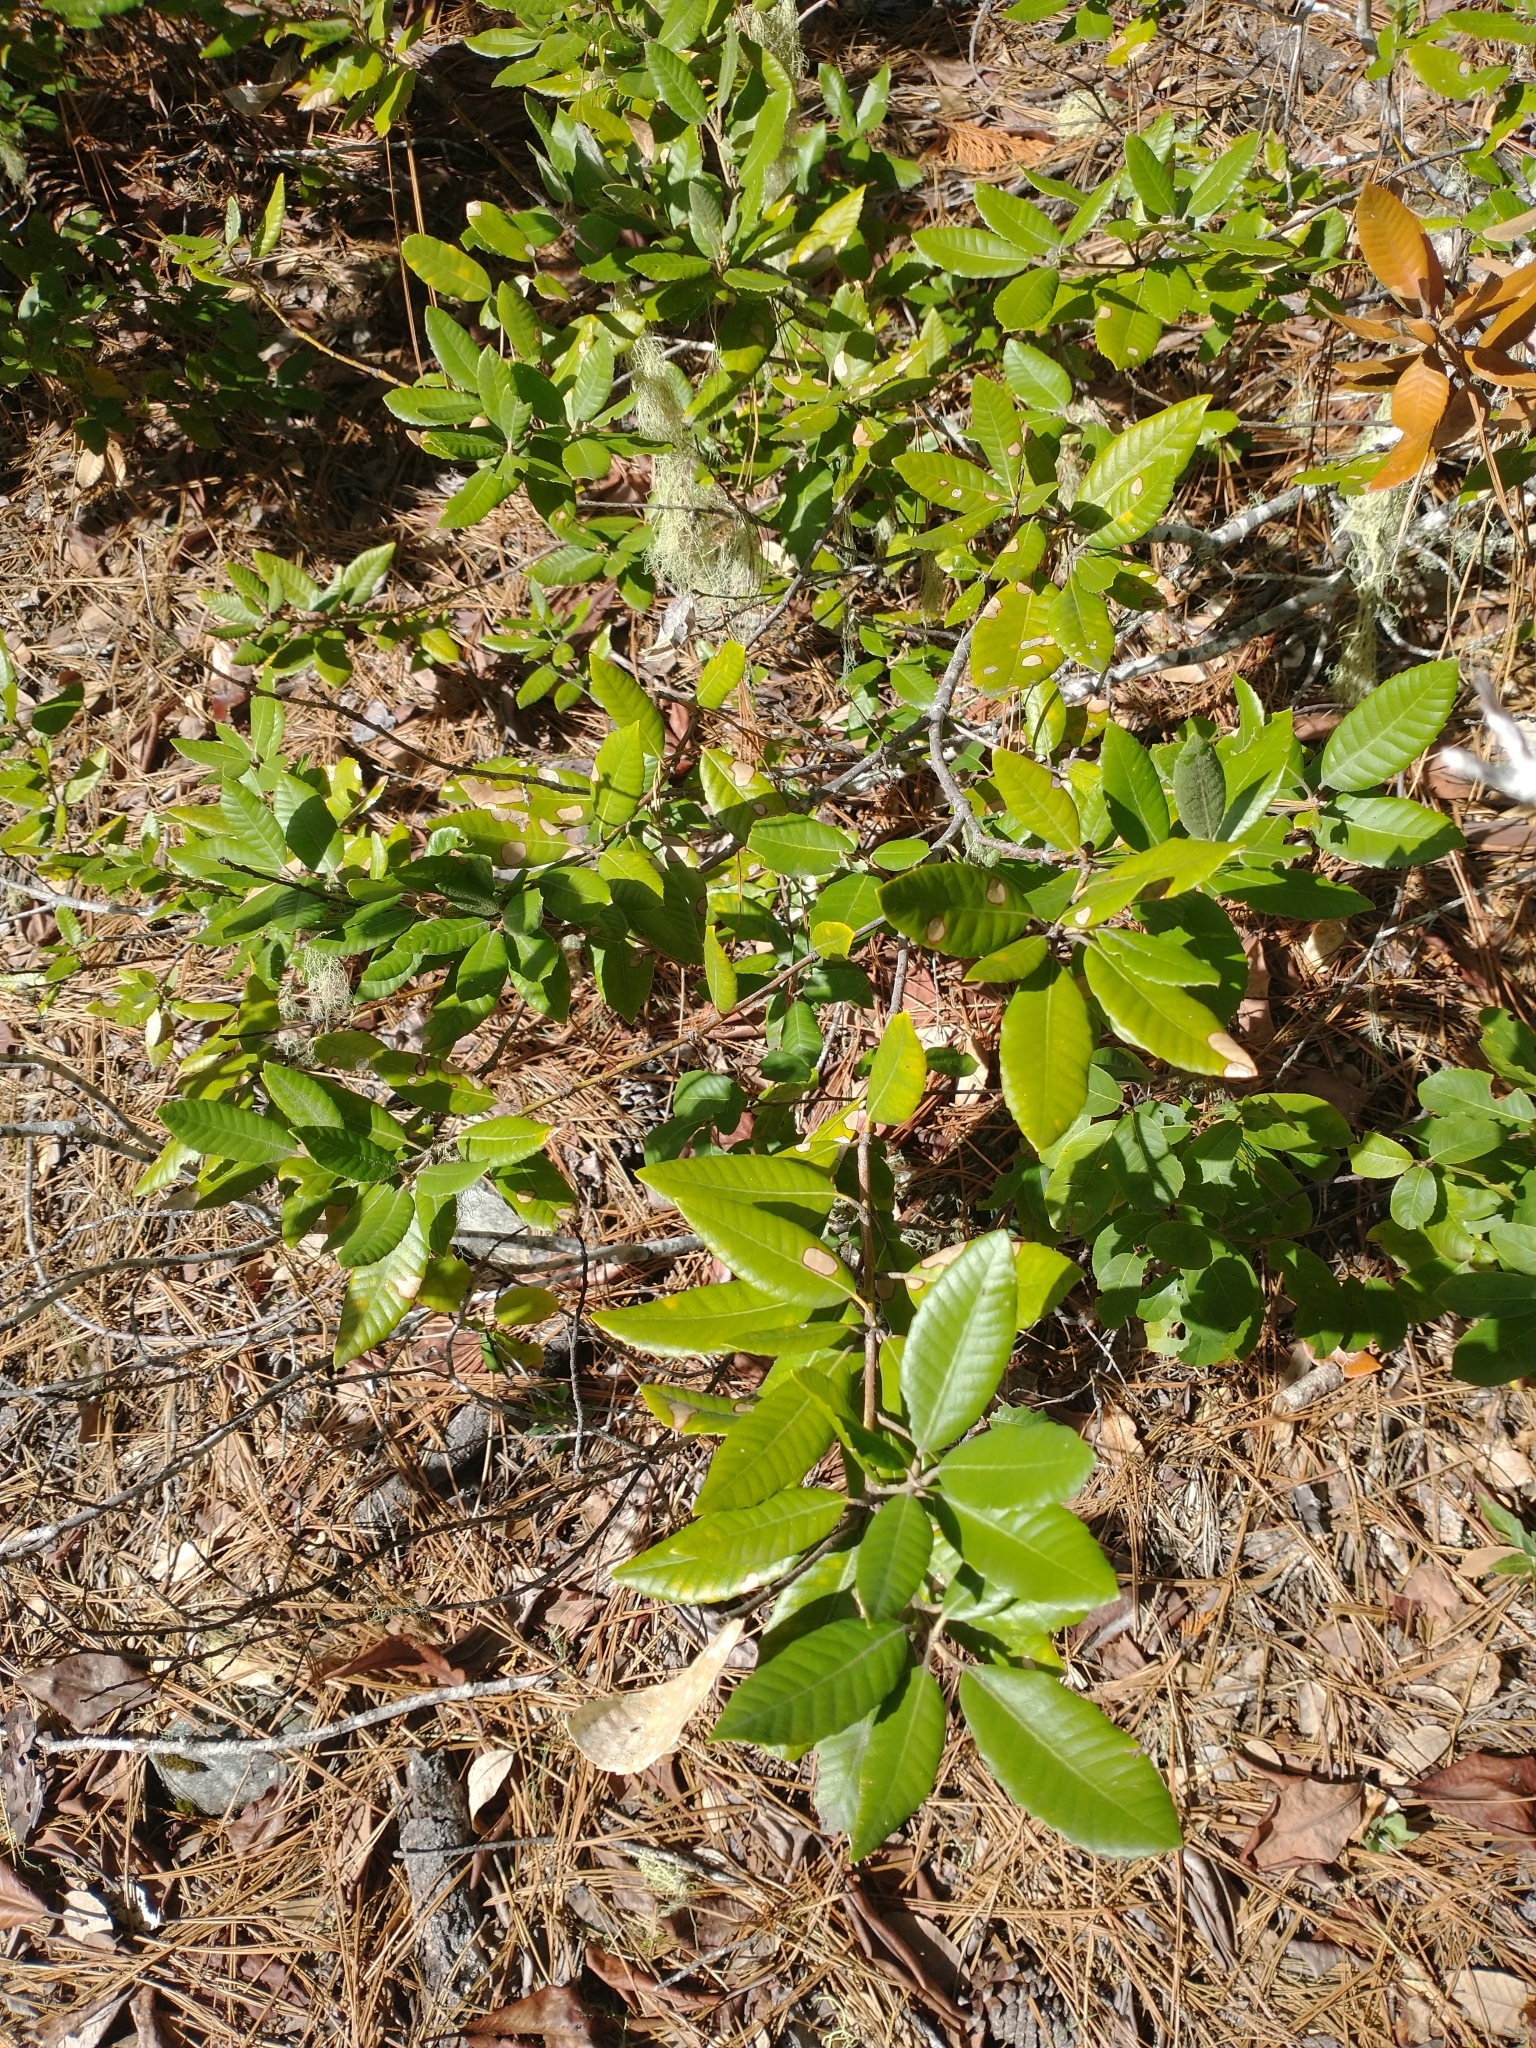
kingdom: Plantae
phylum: Tracheophyta
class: Magnoliopsida
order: Fagales
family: Fagaceae
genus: Notholithocarpus
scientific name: Notholithocarpus densiflorus
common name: Tan bark oak
